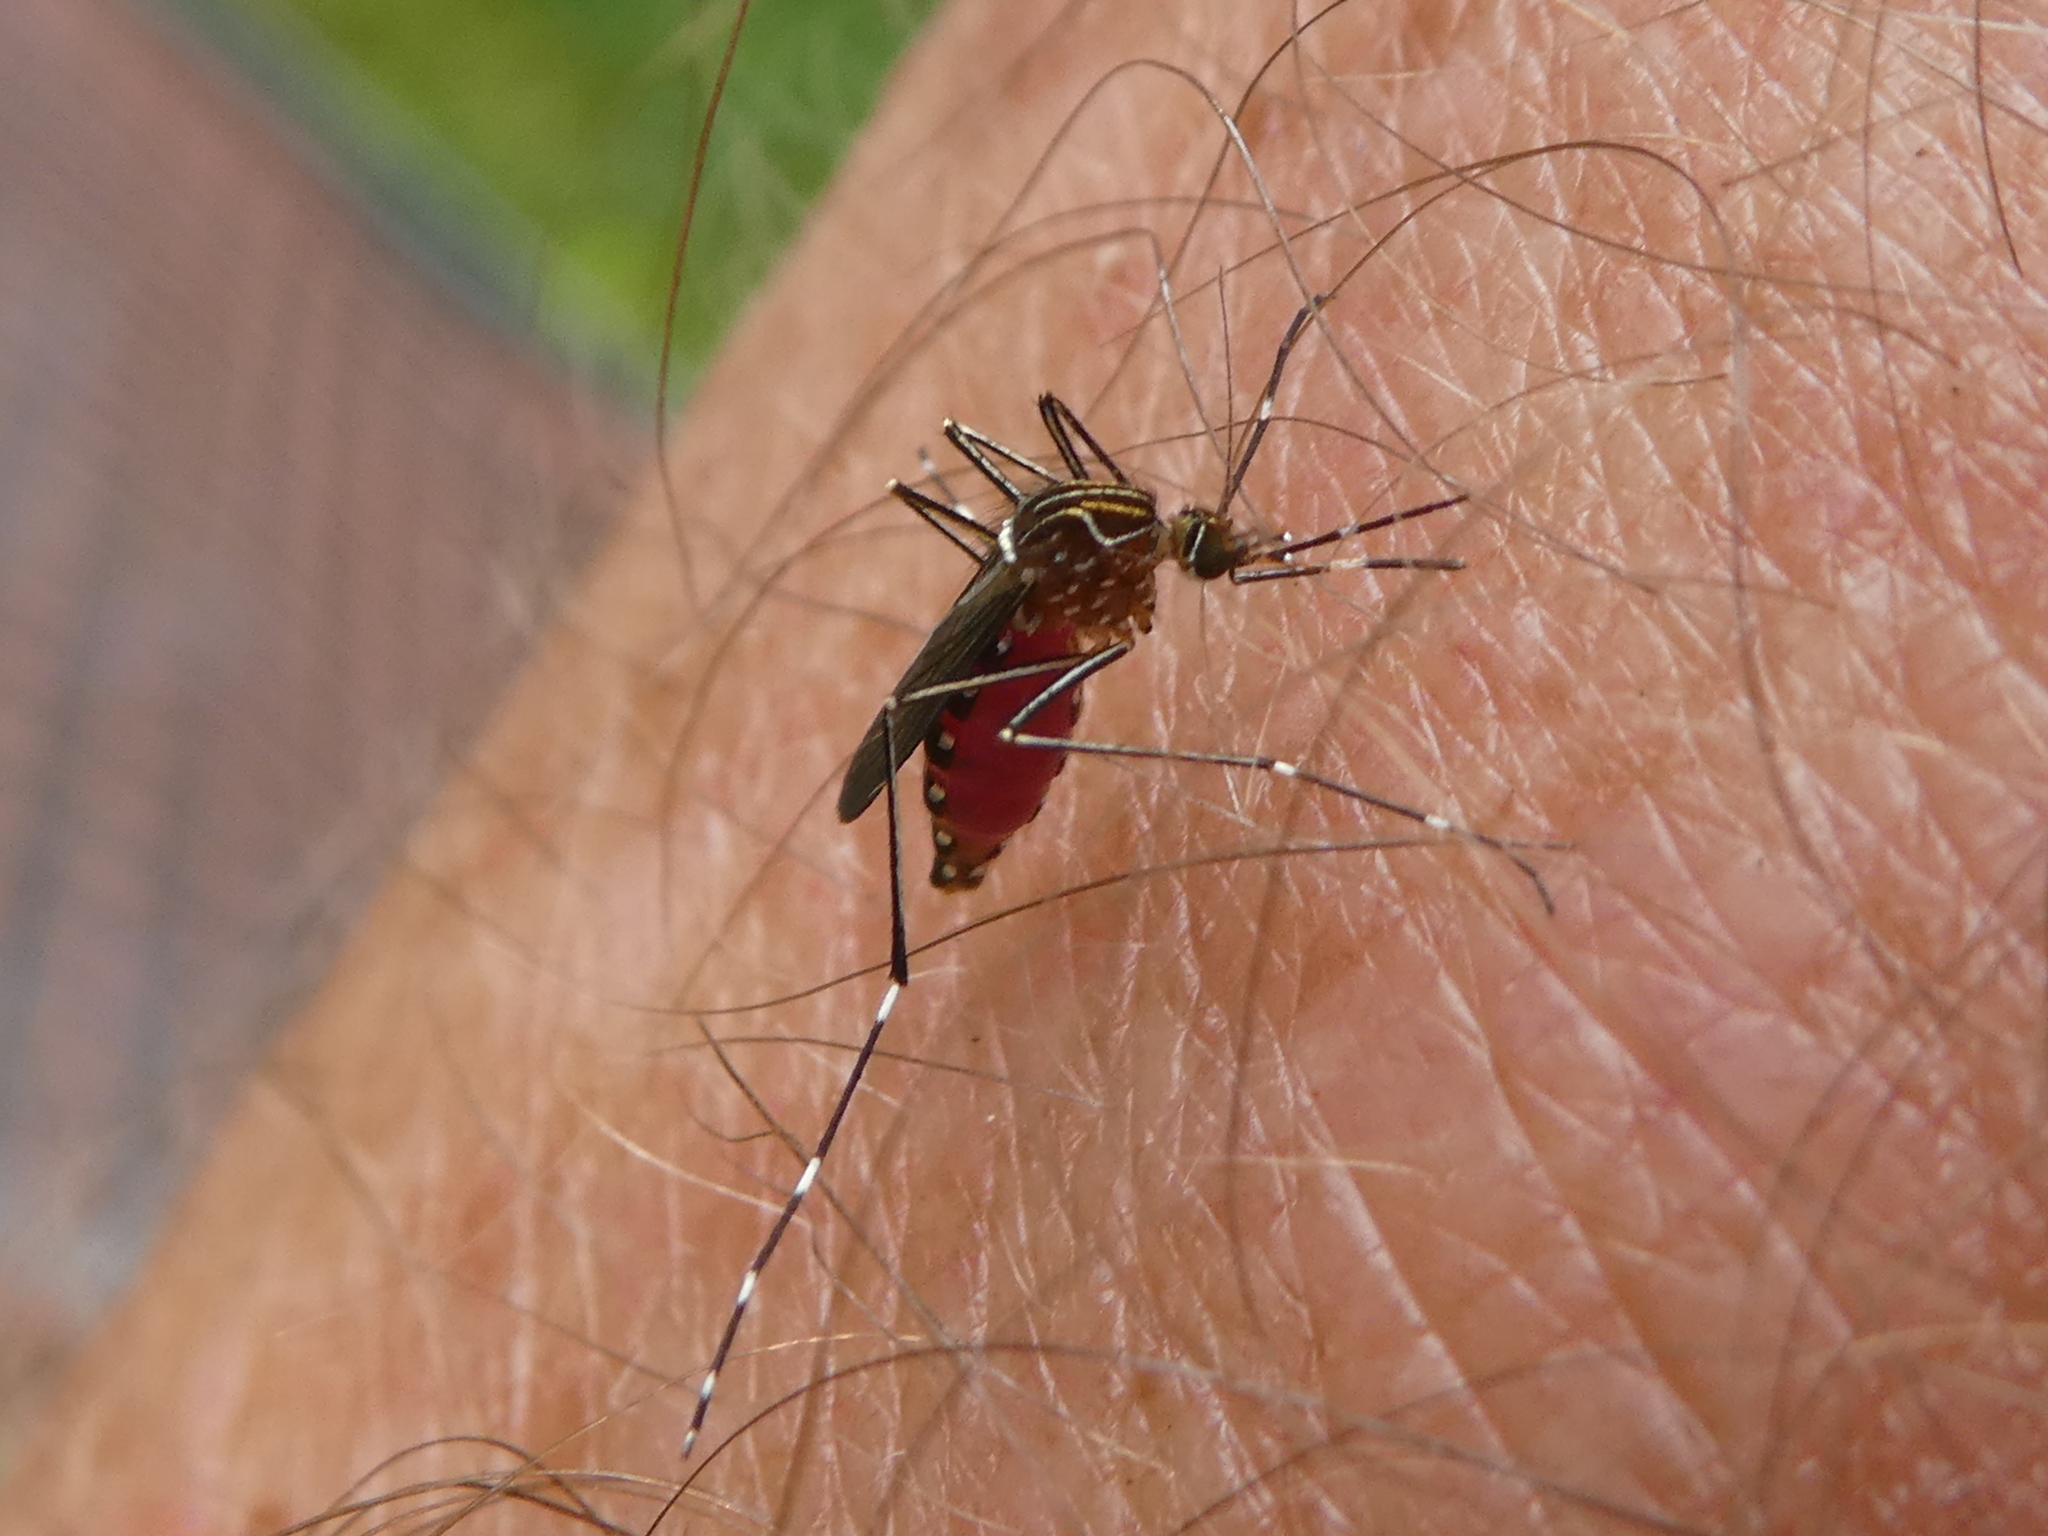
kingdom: Animalia
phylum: Arthropoda
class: Insecta
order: Diptera
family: Culicidae
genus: Aedes
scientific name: Aedes notoscriptus
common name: Australian backyard mosquito
